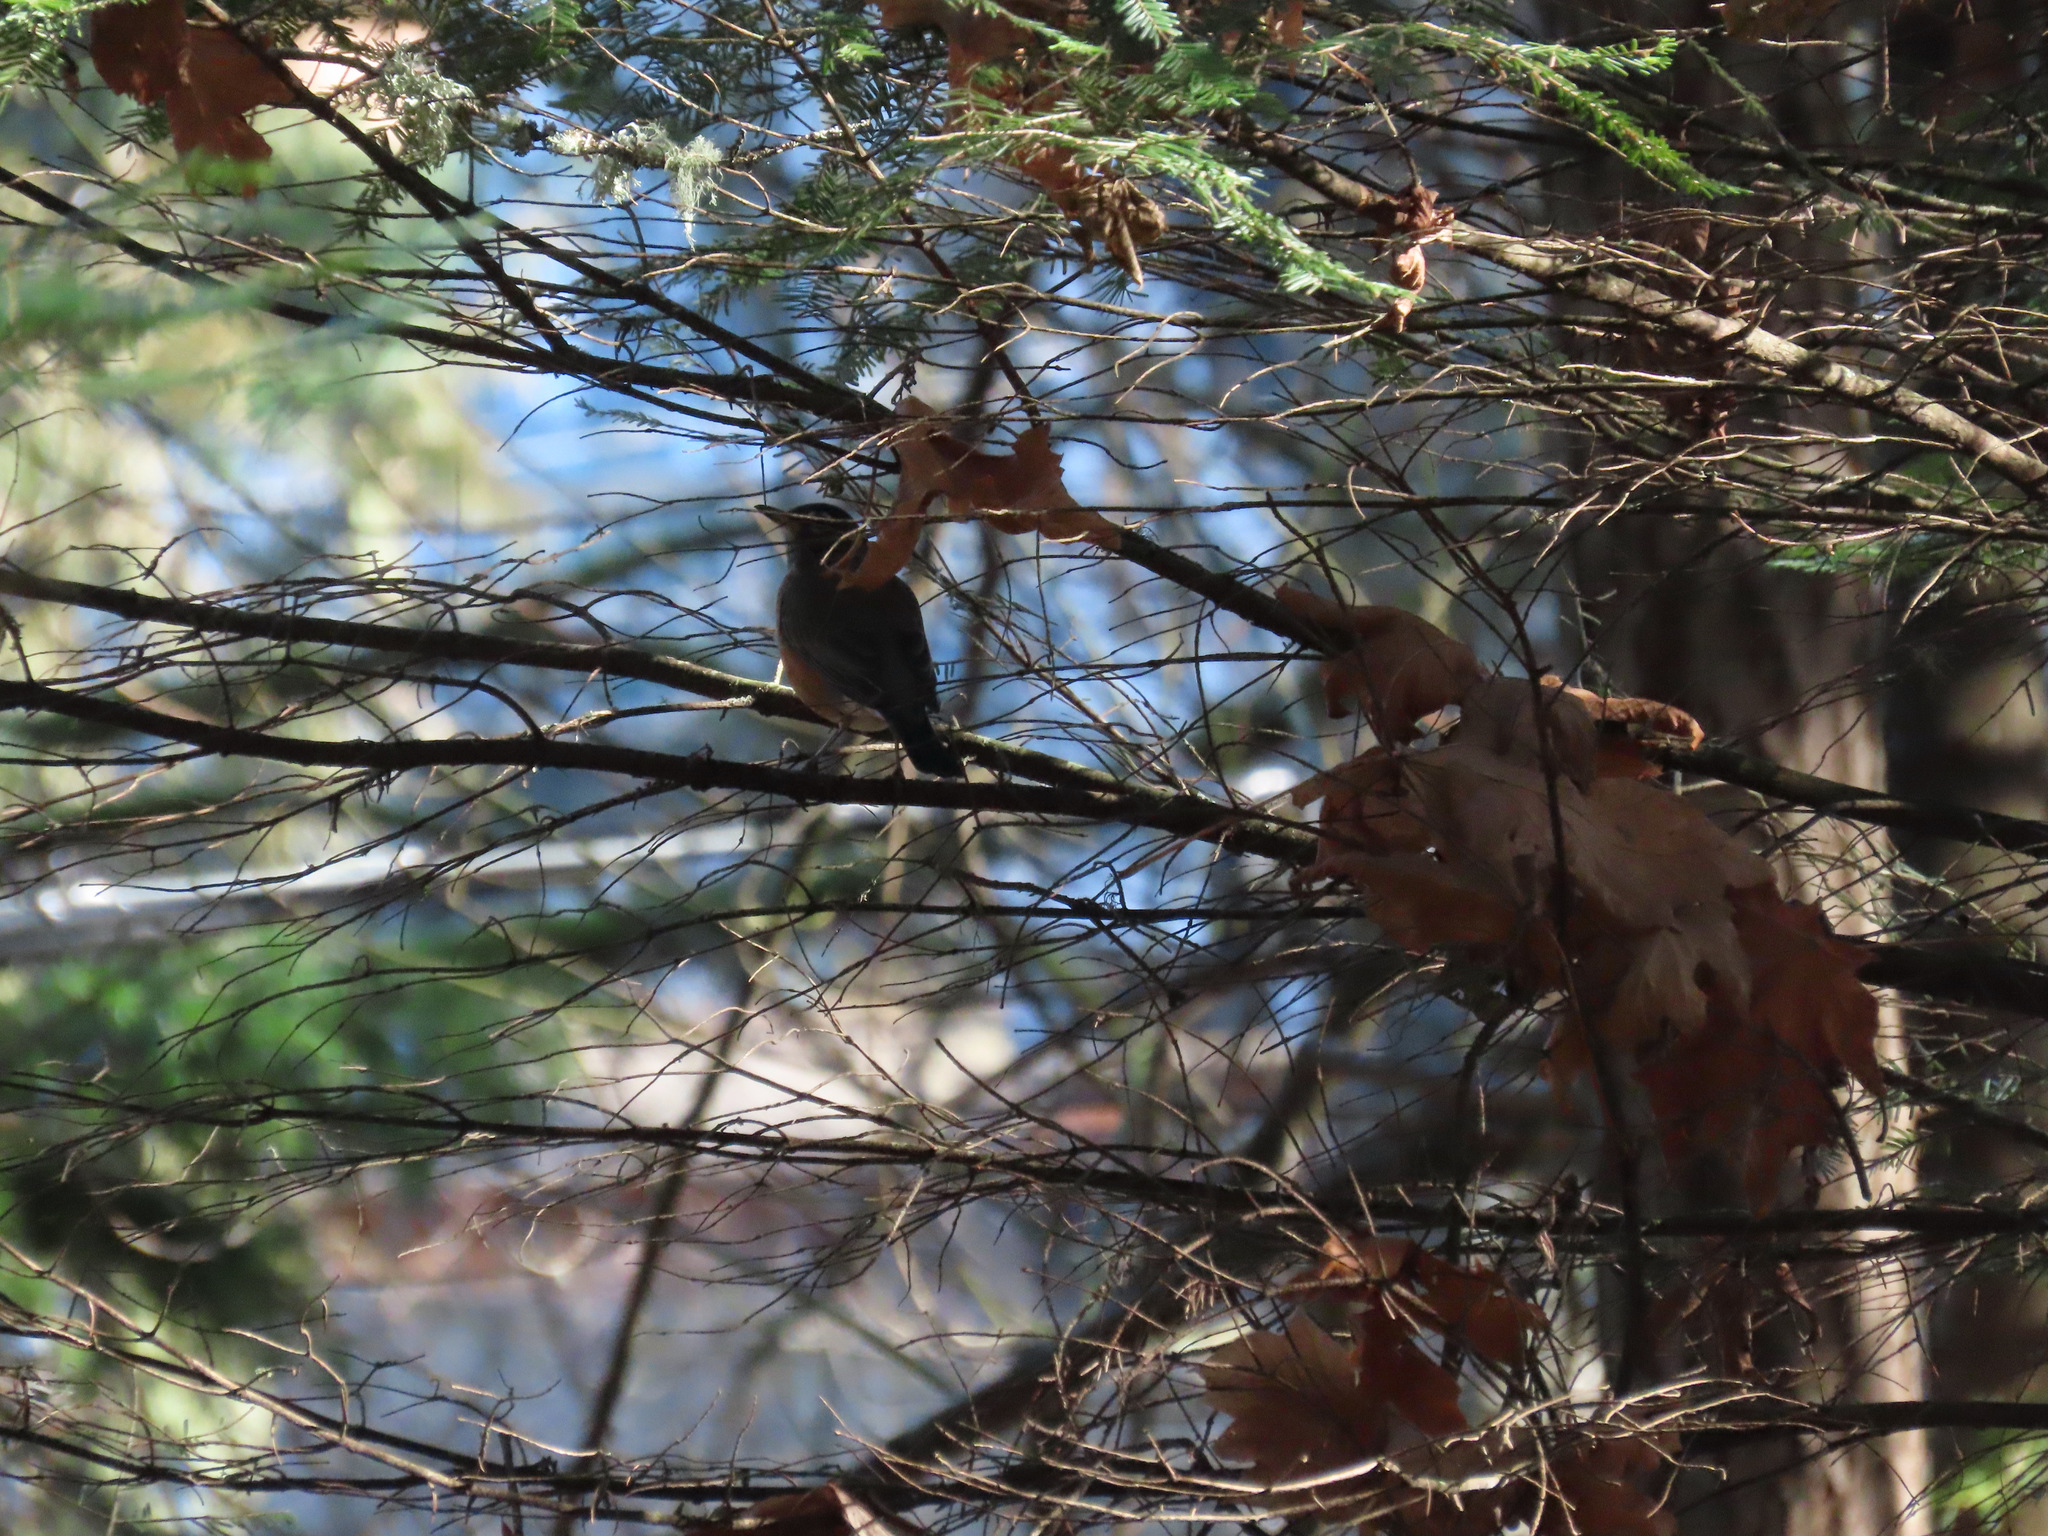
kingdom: Animalia
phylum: Chordata
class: Aves
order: Passeriformes
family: Turdidae
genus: Turdus
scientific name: Turdus migratorius
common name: American robin
